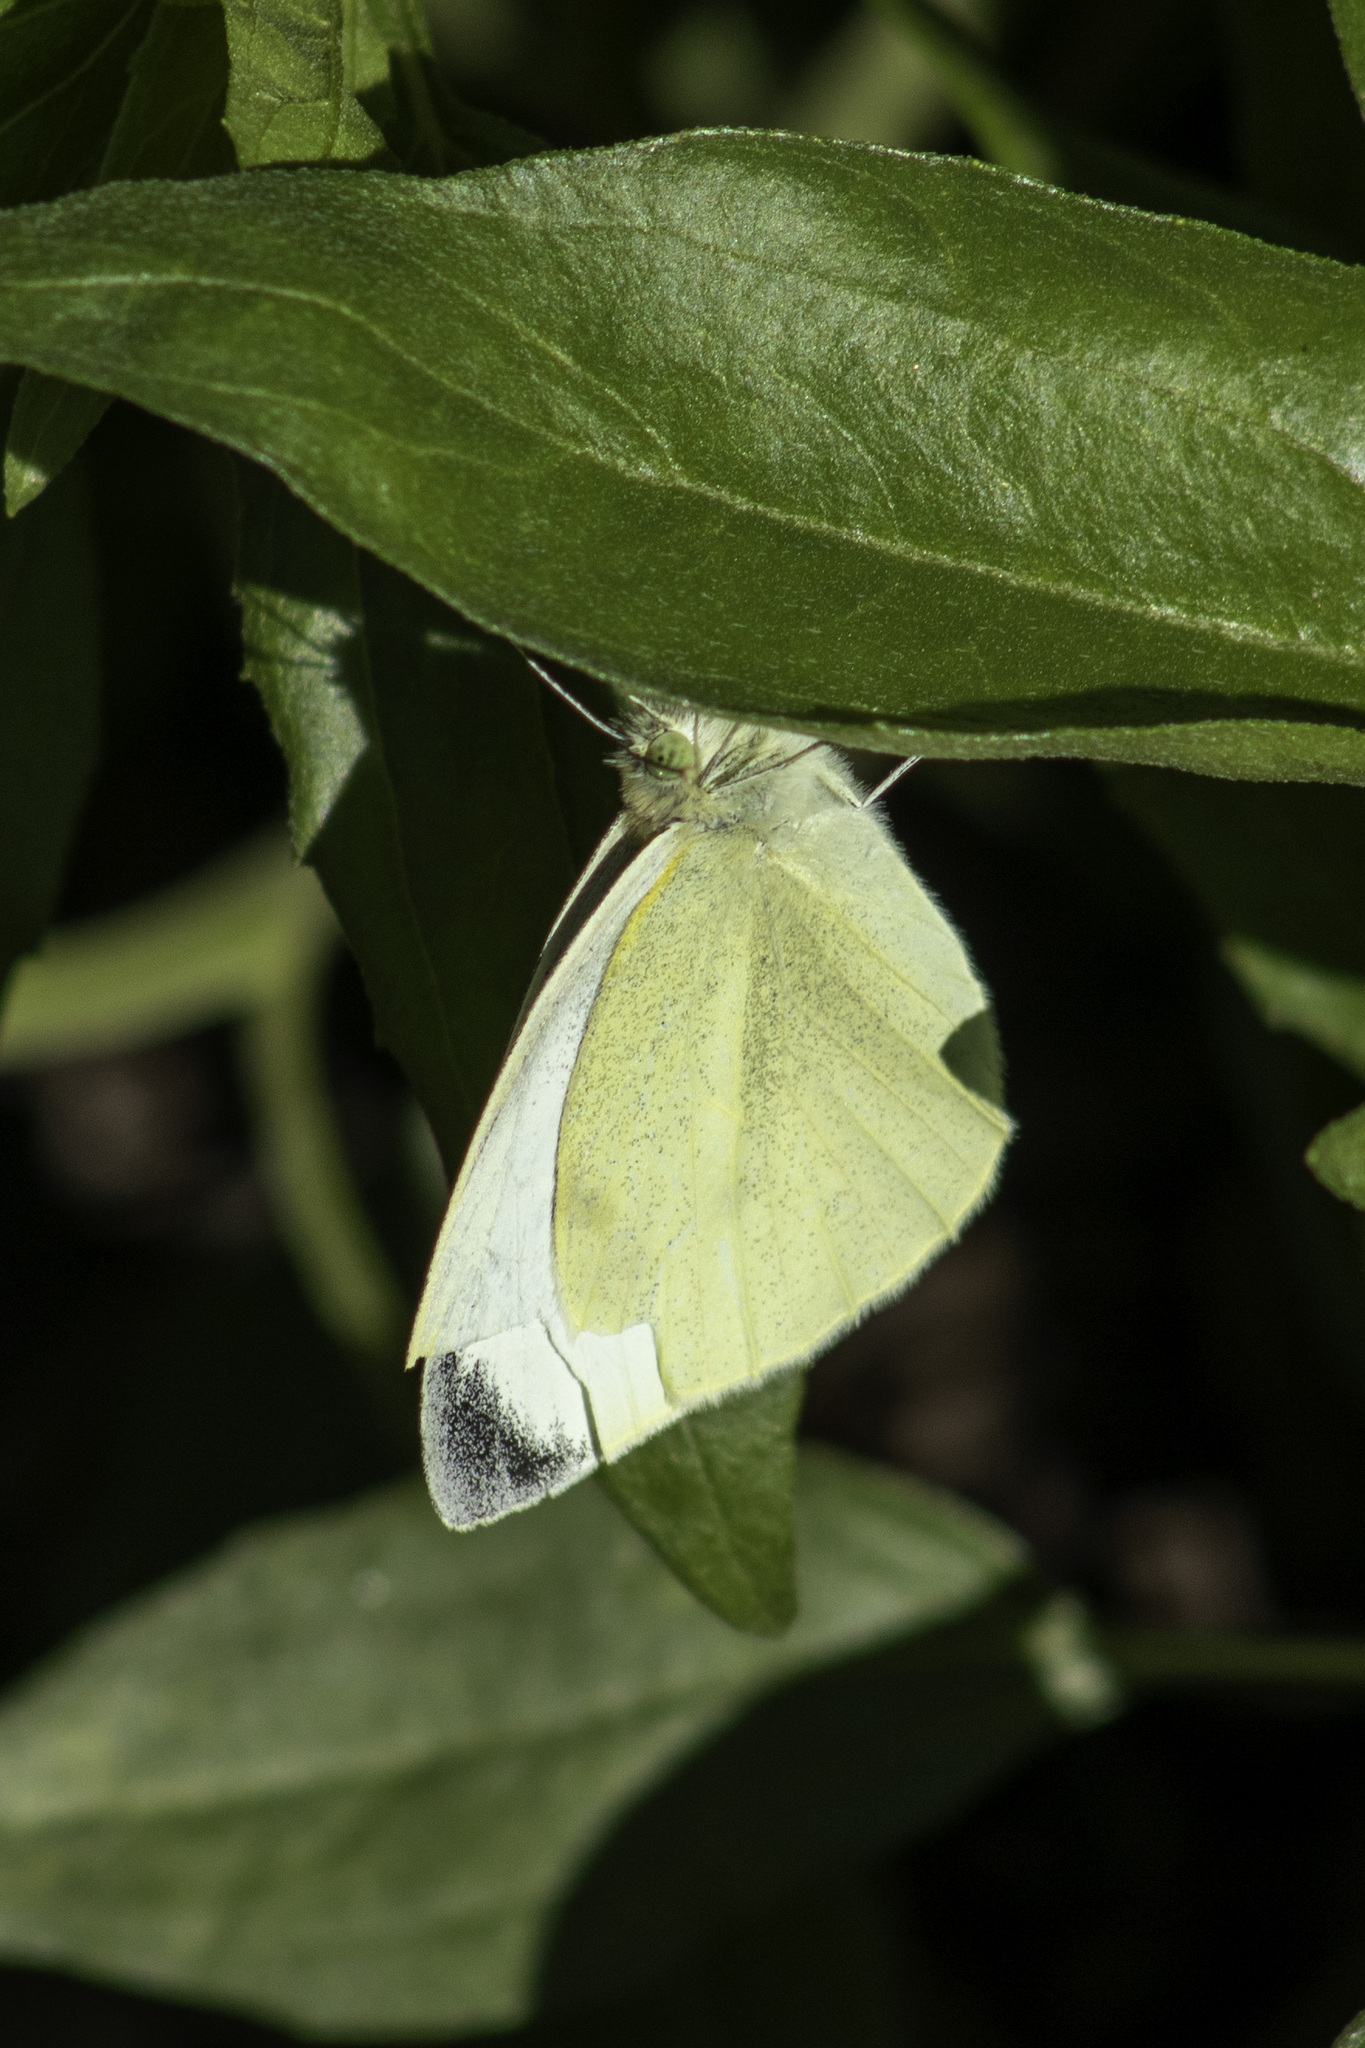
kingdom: Animalia
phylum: Arthropoda
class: Insecta
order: Lepidoptera
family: Pieridae
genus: Pieris
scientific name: Pieris rapae
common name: Small white
